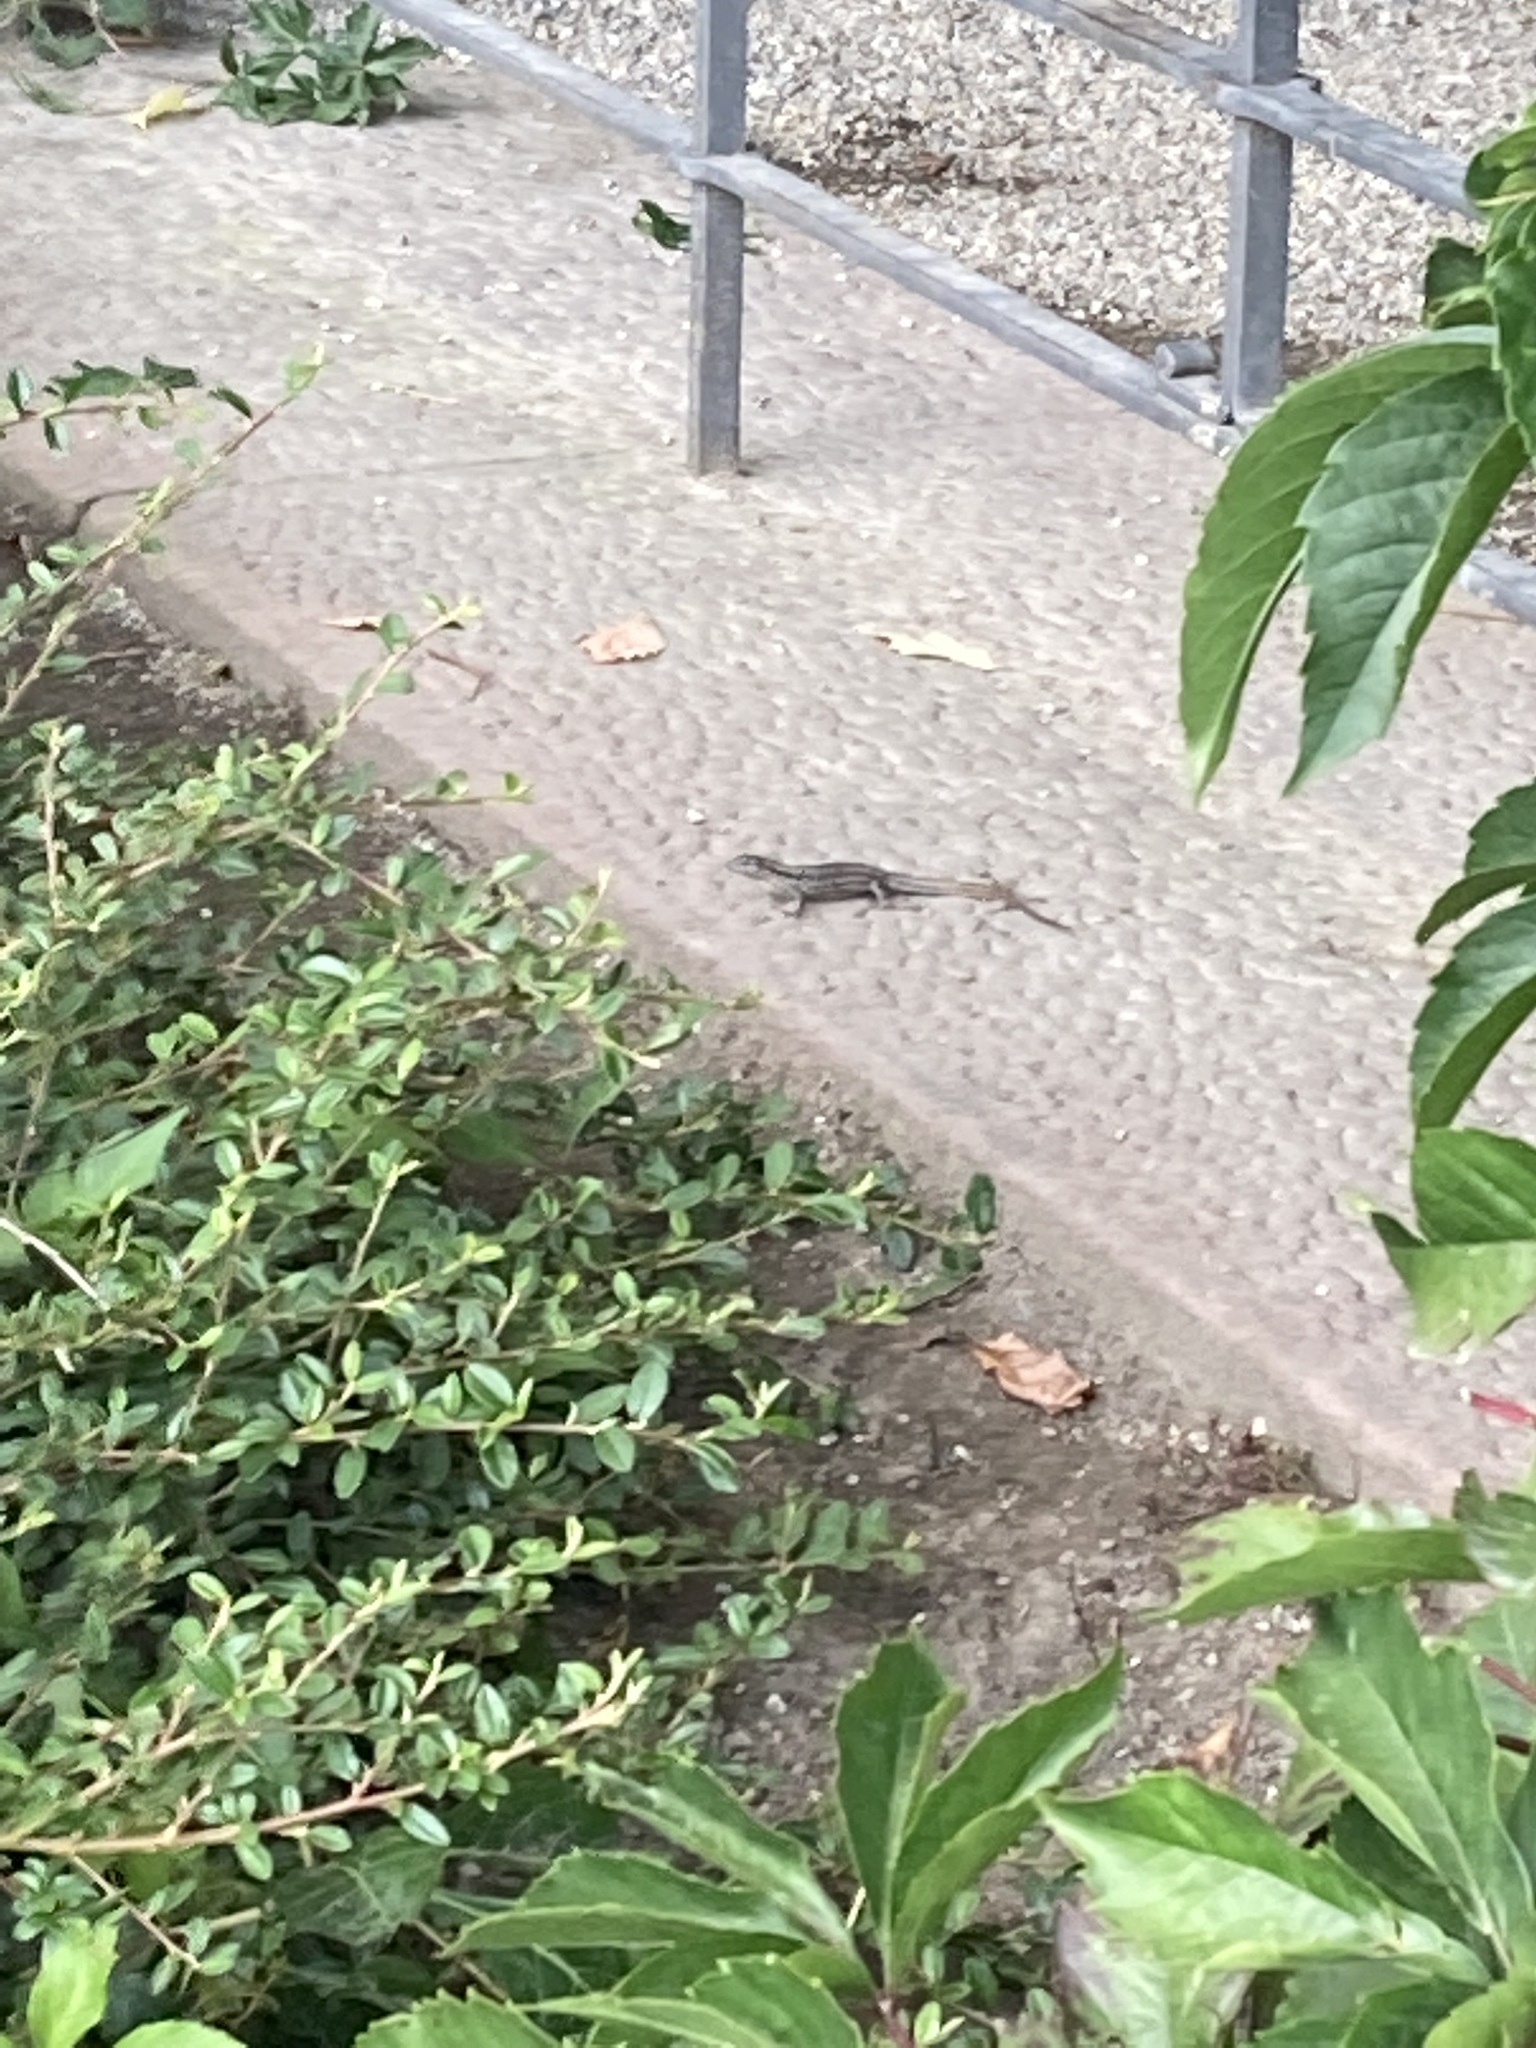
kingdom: Animalia
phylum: Chordata
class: Squamata
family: Lacertidae
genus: Podarcis
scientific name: Podarcis muralis
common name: Common wall lizard
